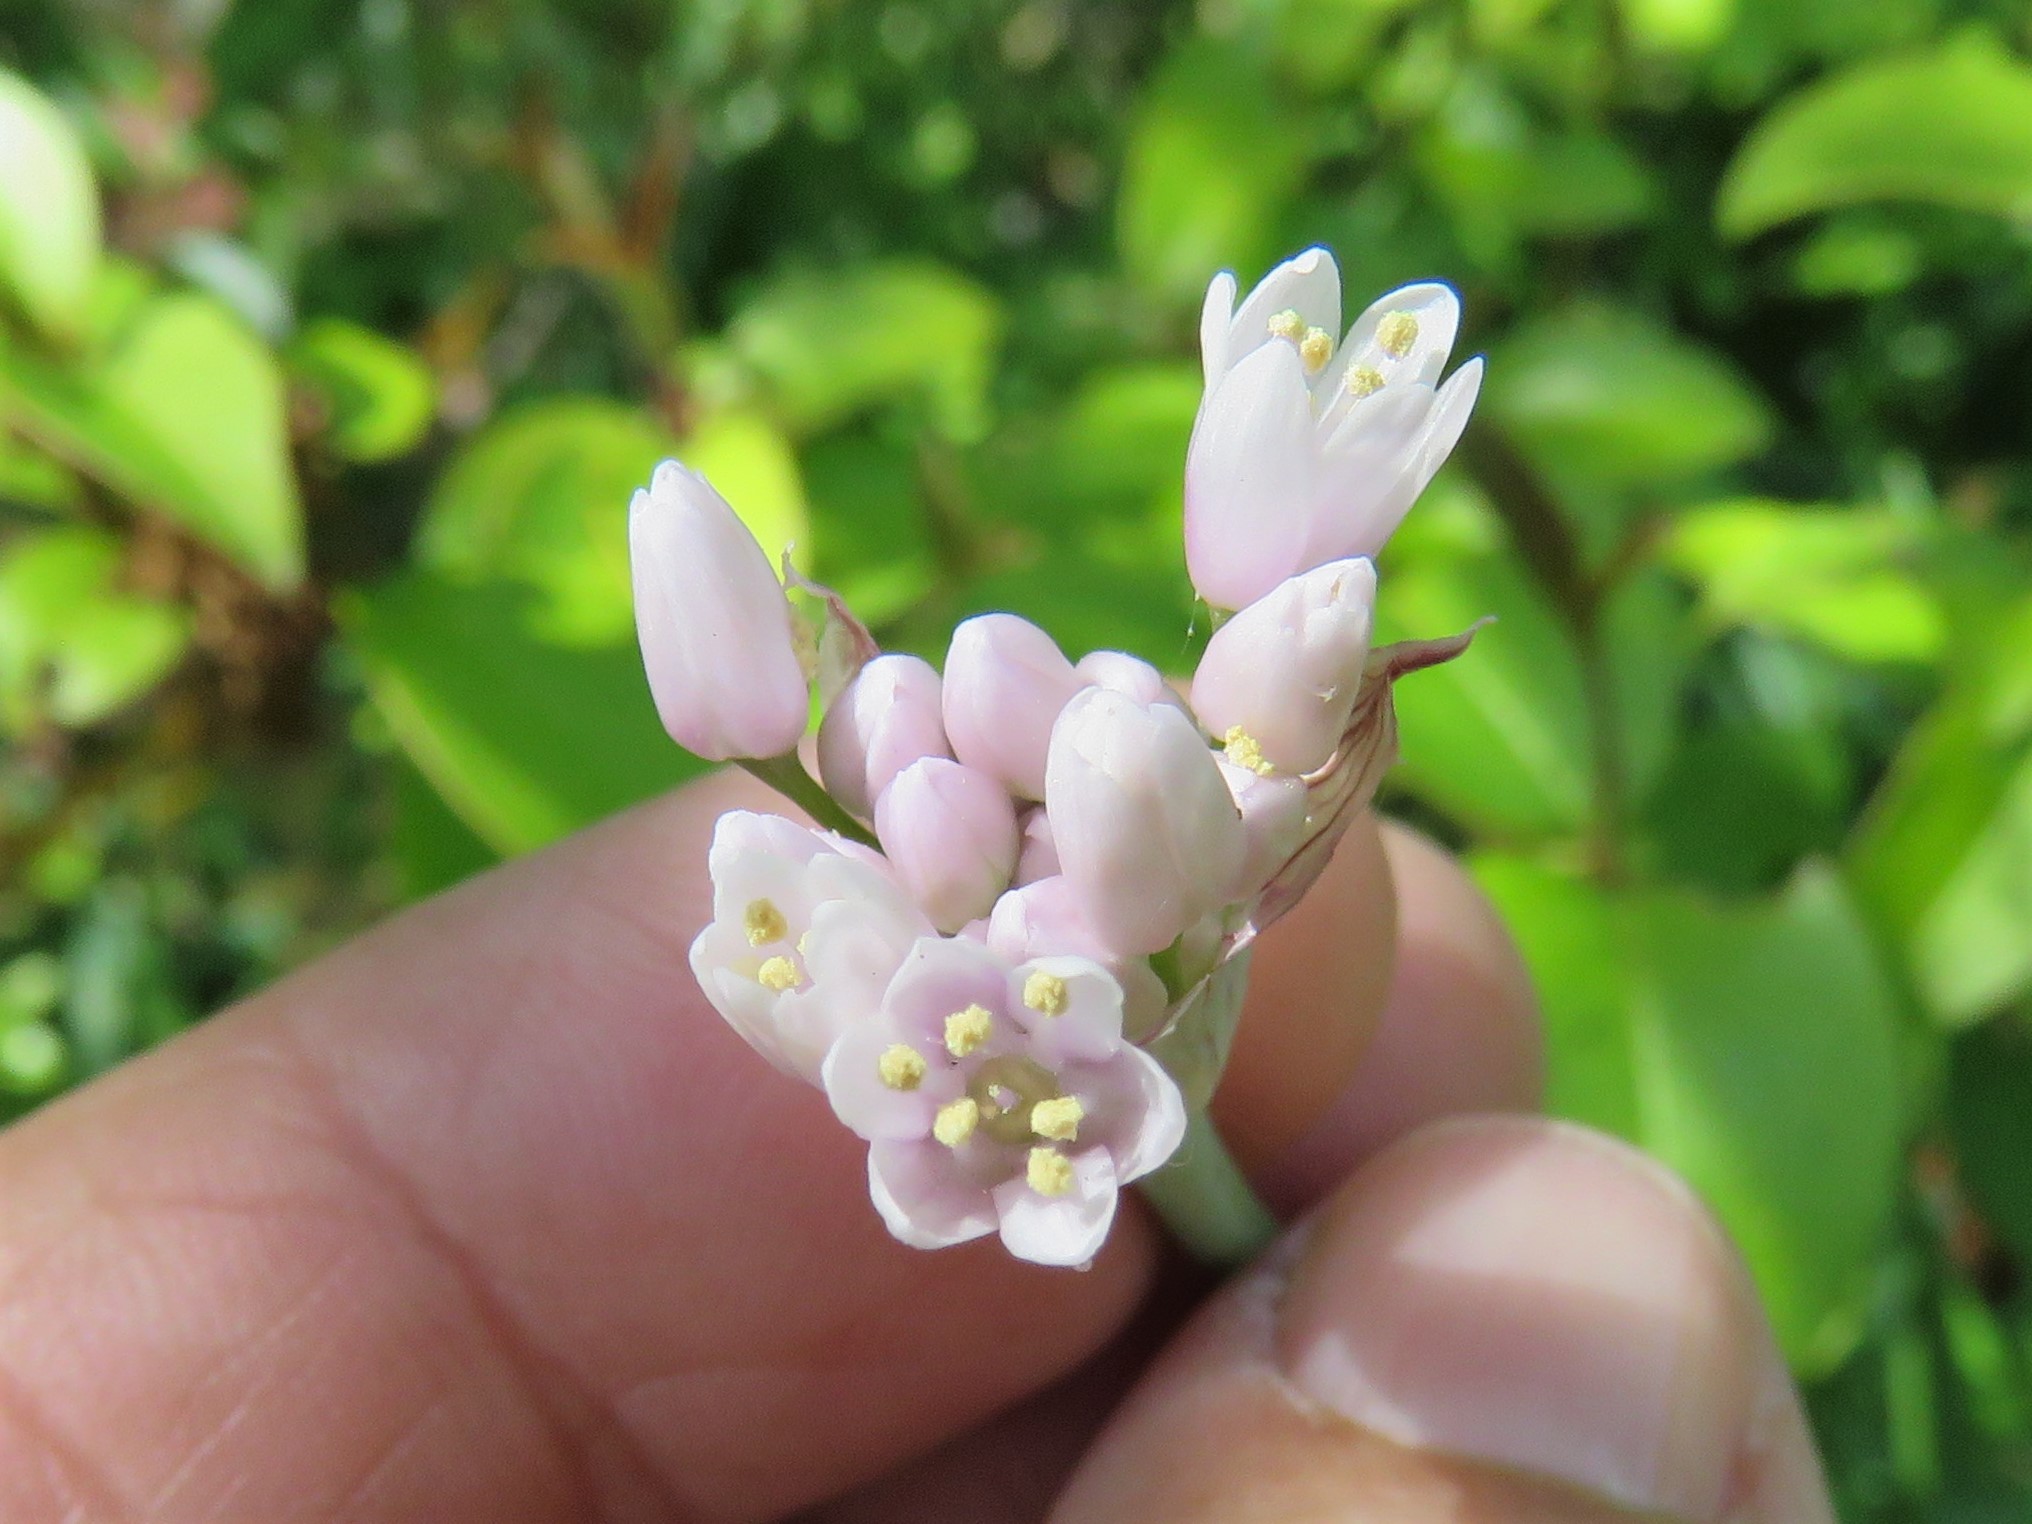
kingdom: Plantae
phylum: Tracheophyta
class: Liliopsida
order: Asparagales
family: Amaryllidaceae
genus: Allium
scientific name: Allium drummondii
